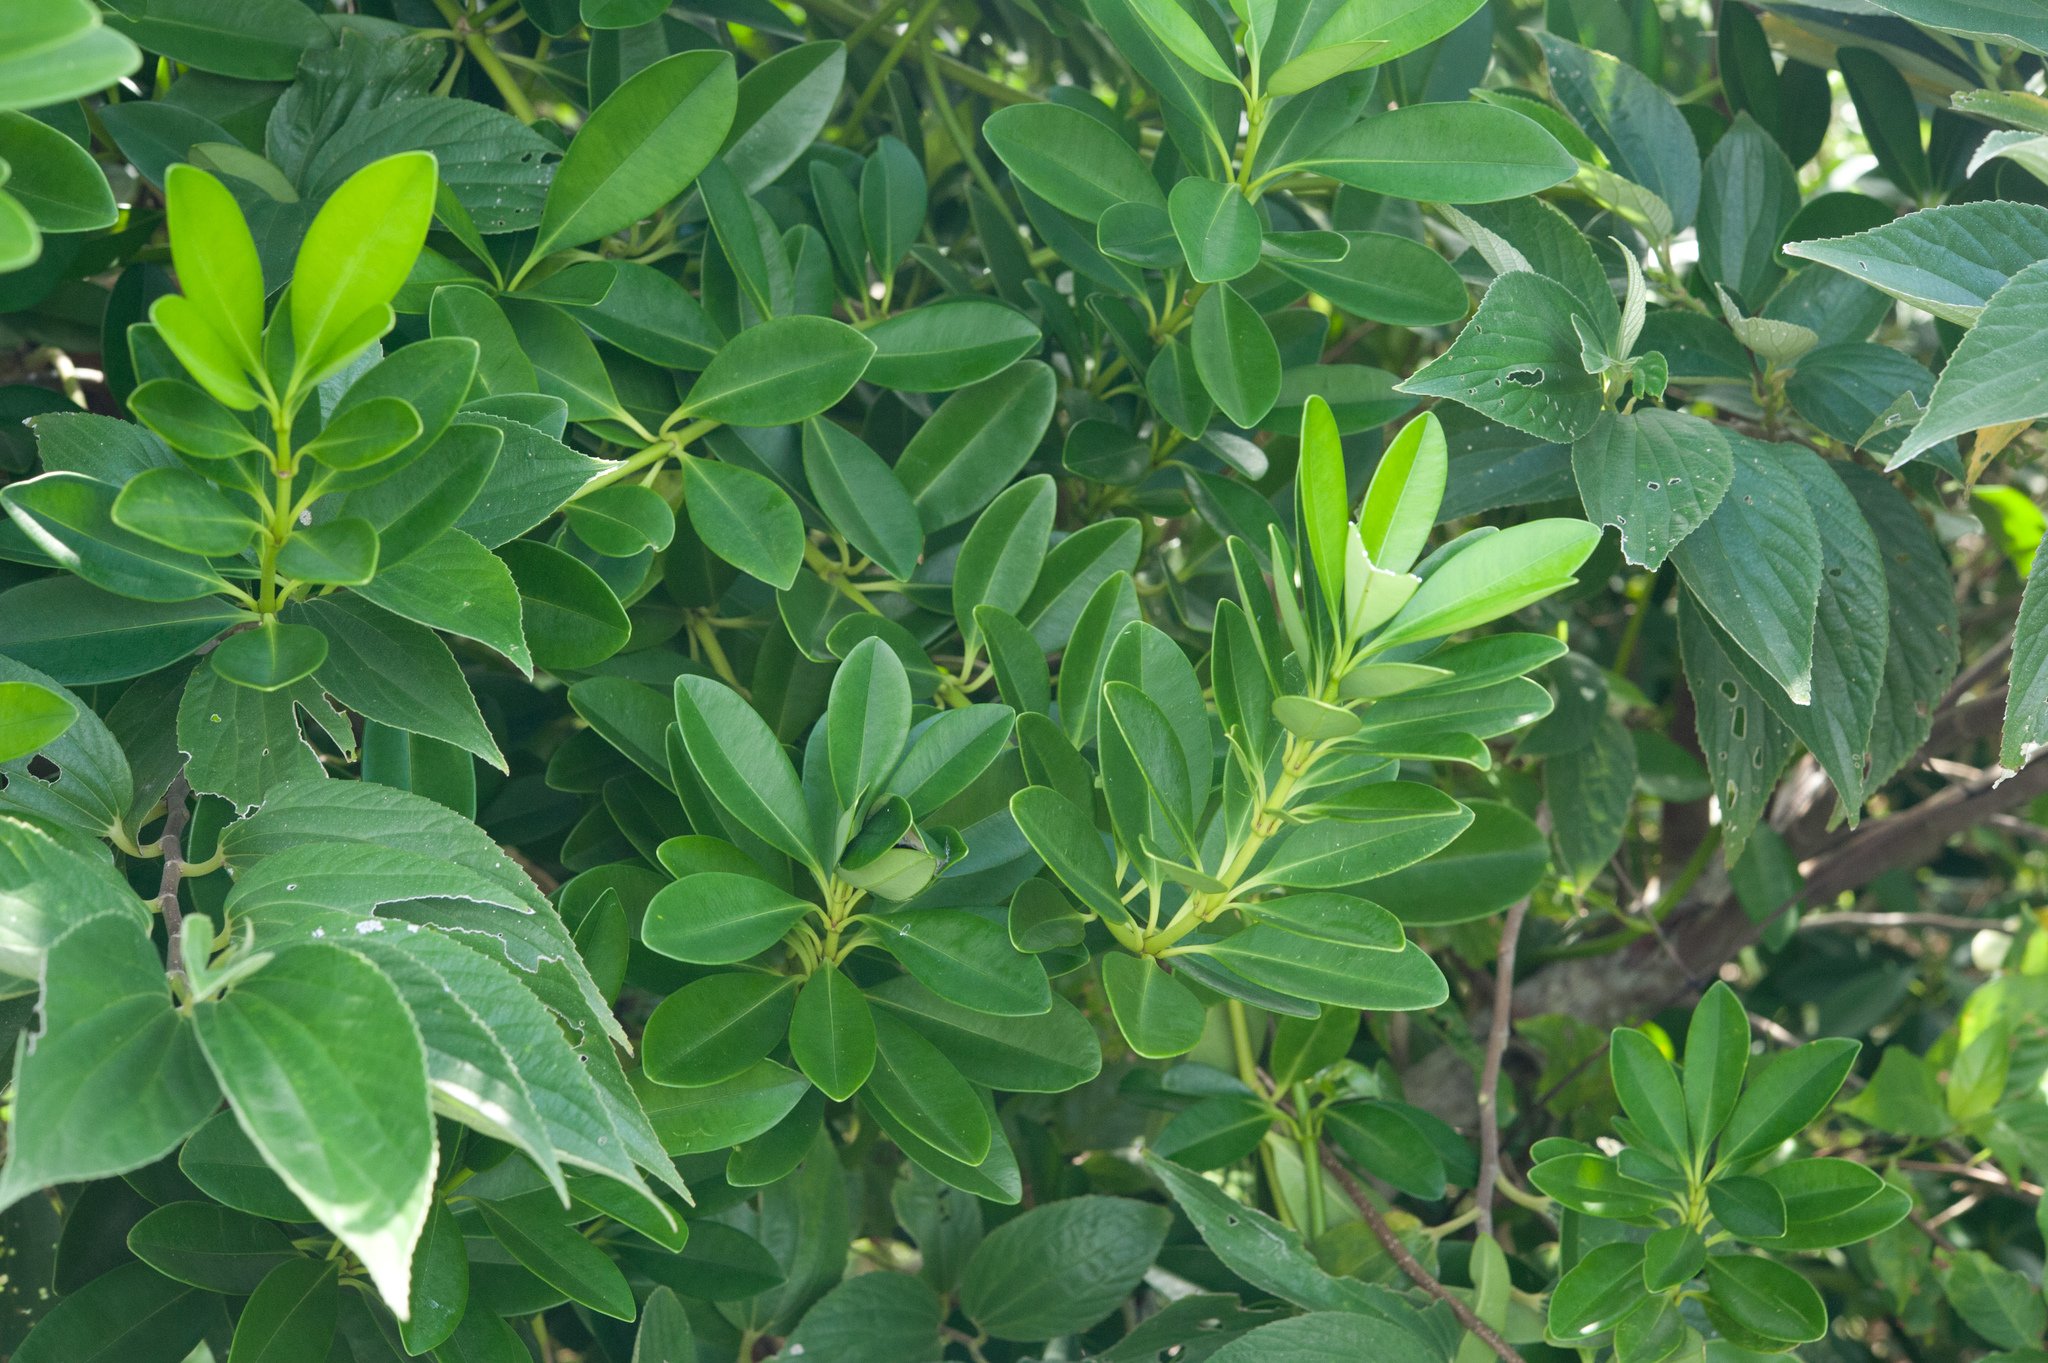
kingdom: Plantae
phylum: Tracheophyta
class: Magnoliopsida
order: Gentianales
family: Apocynaceae
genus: Alyxia
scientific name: Alyxia monticola
